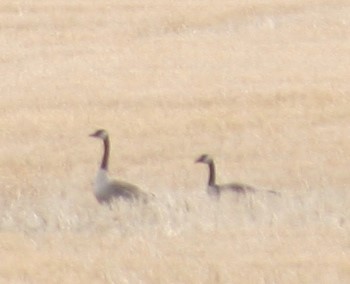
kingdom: Animalia
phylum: Chordata
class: Aves
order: Anseriformes
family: Anatidae
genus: Branta
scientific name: Branta canadensis
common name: Canada goose
